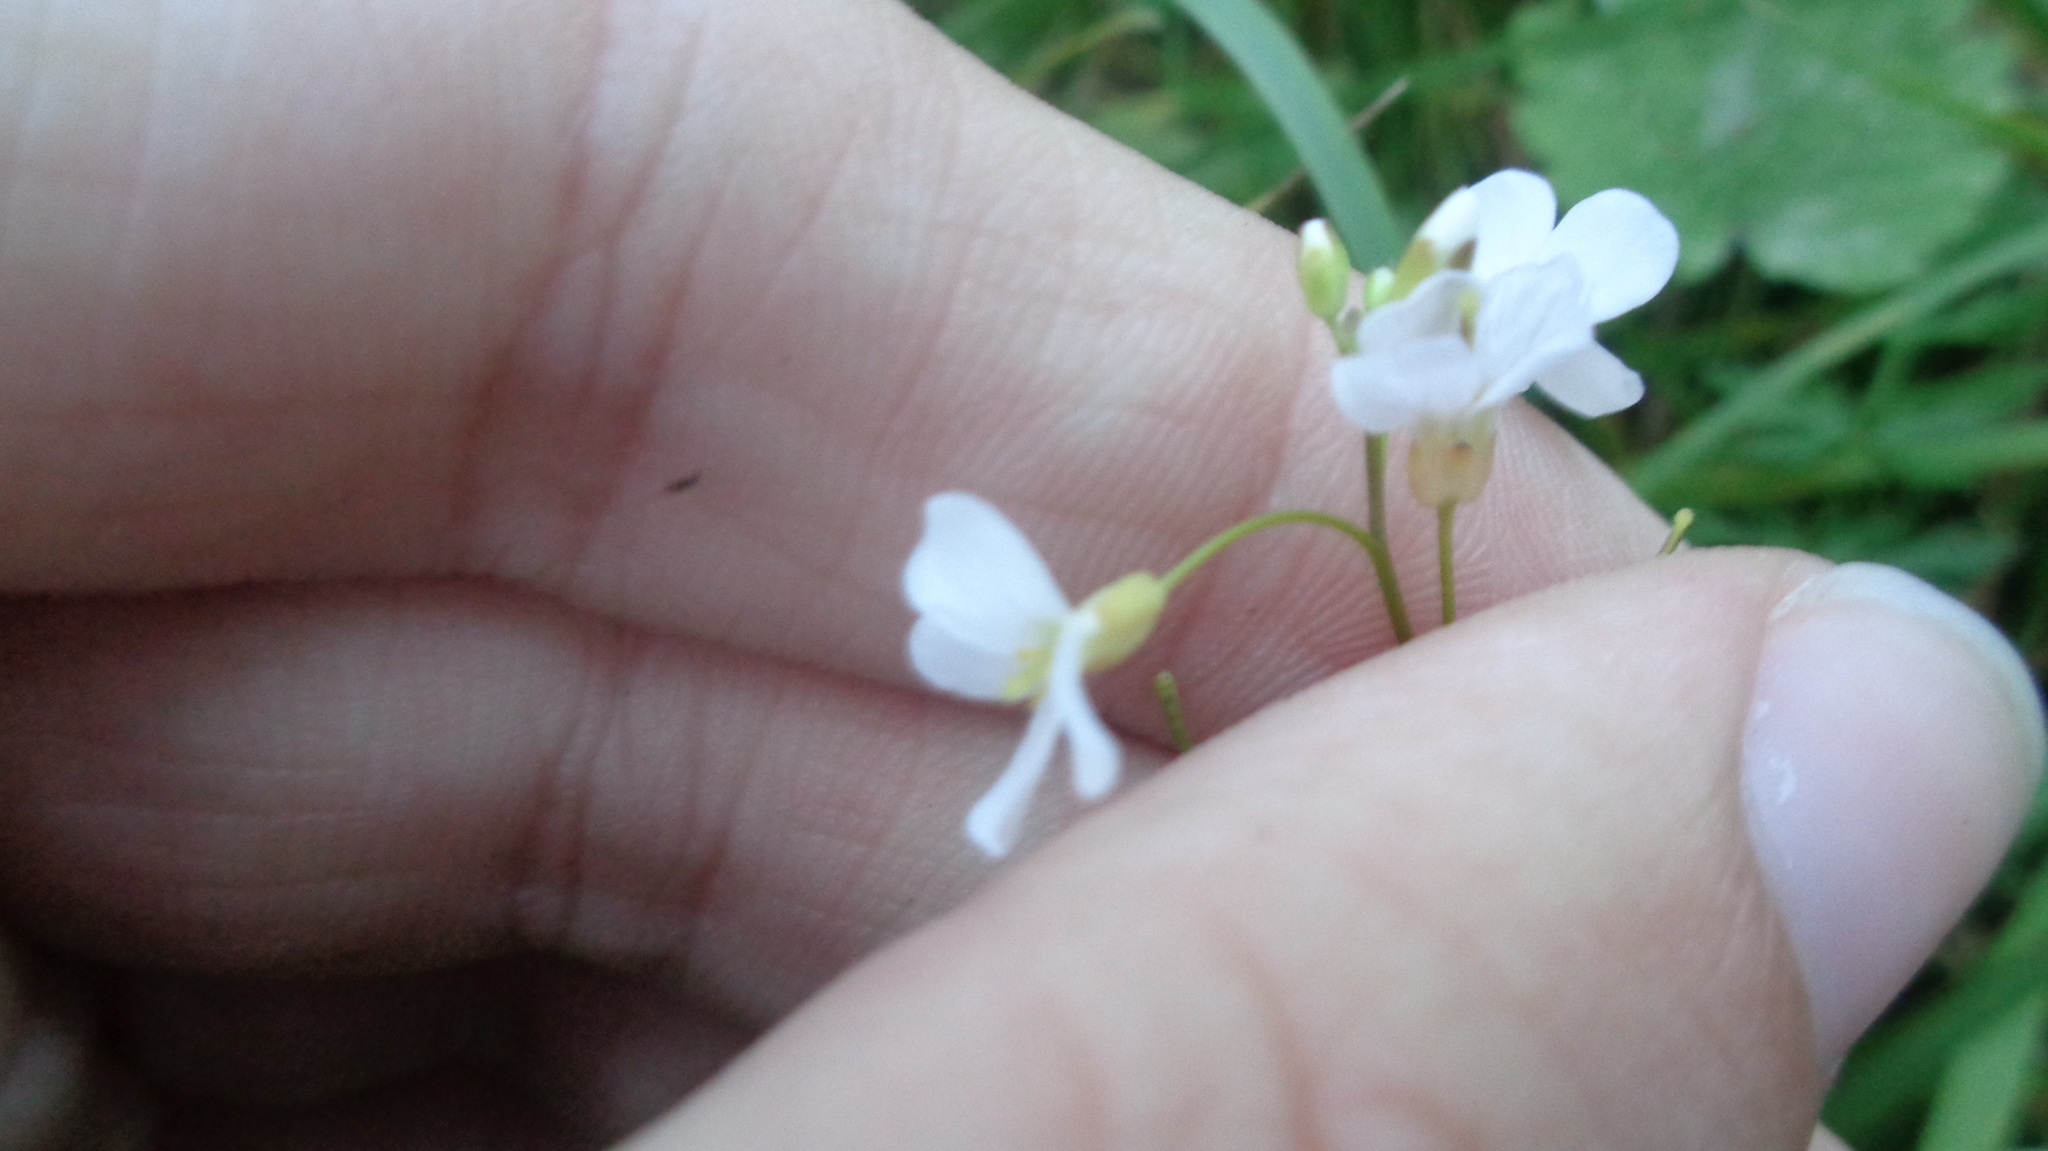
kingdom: Plantae
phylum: Tracheophyta
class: Magnoliopsida
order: Brassicales
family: Brassicaceae
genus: Arabidopsis
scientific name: Arabidopsis arenosa
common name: Sand rock-cress
